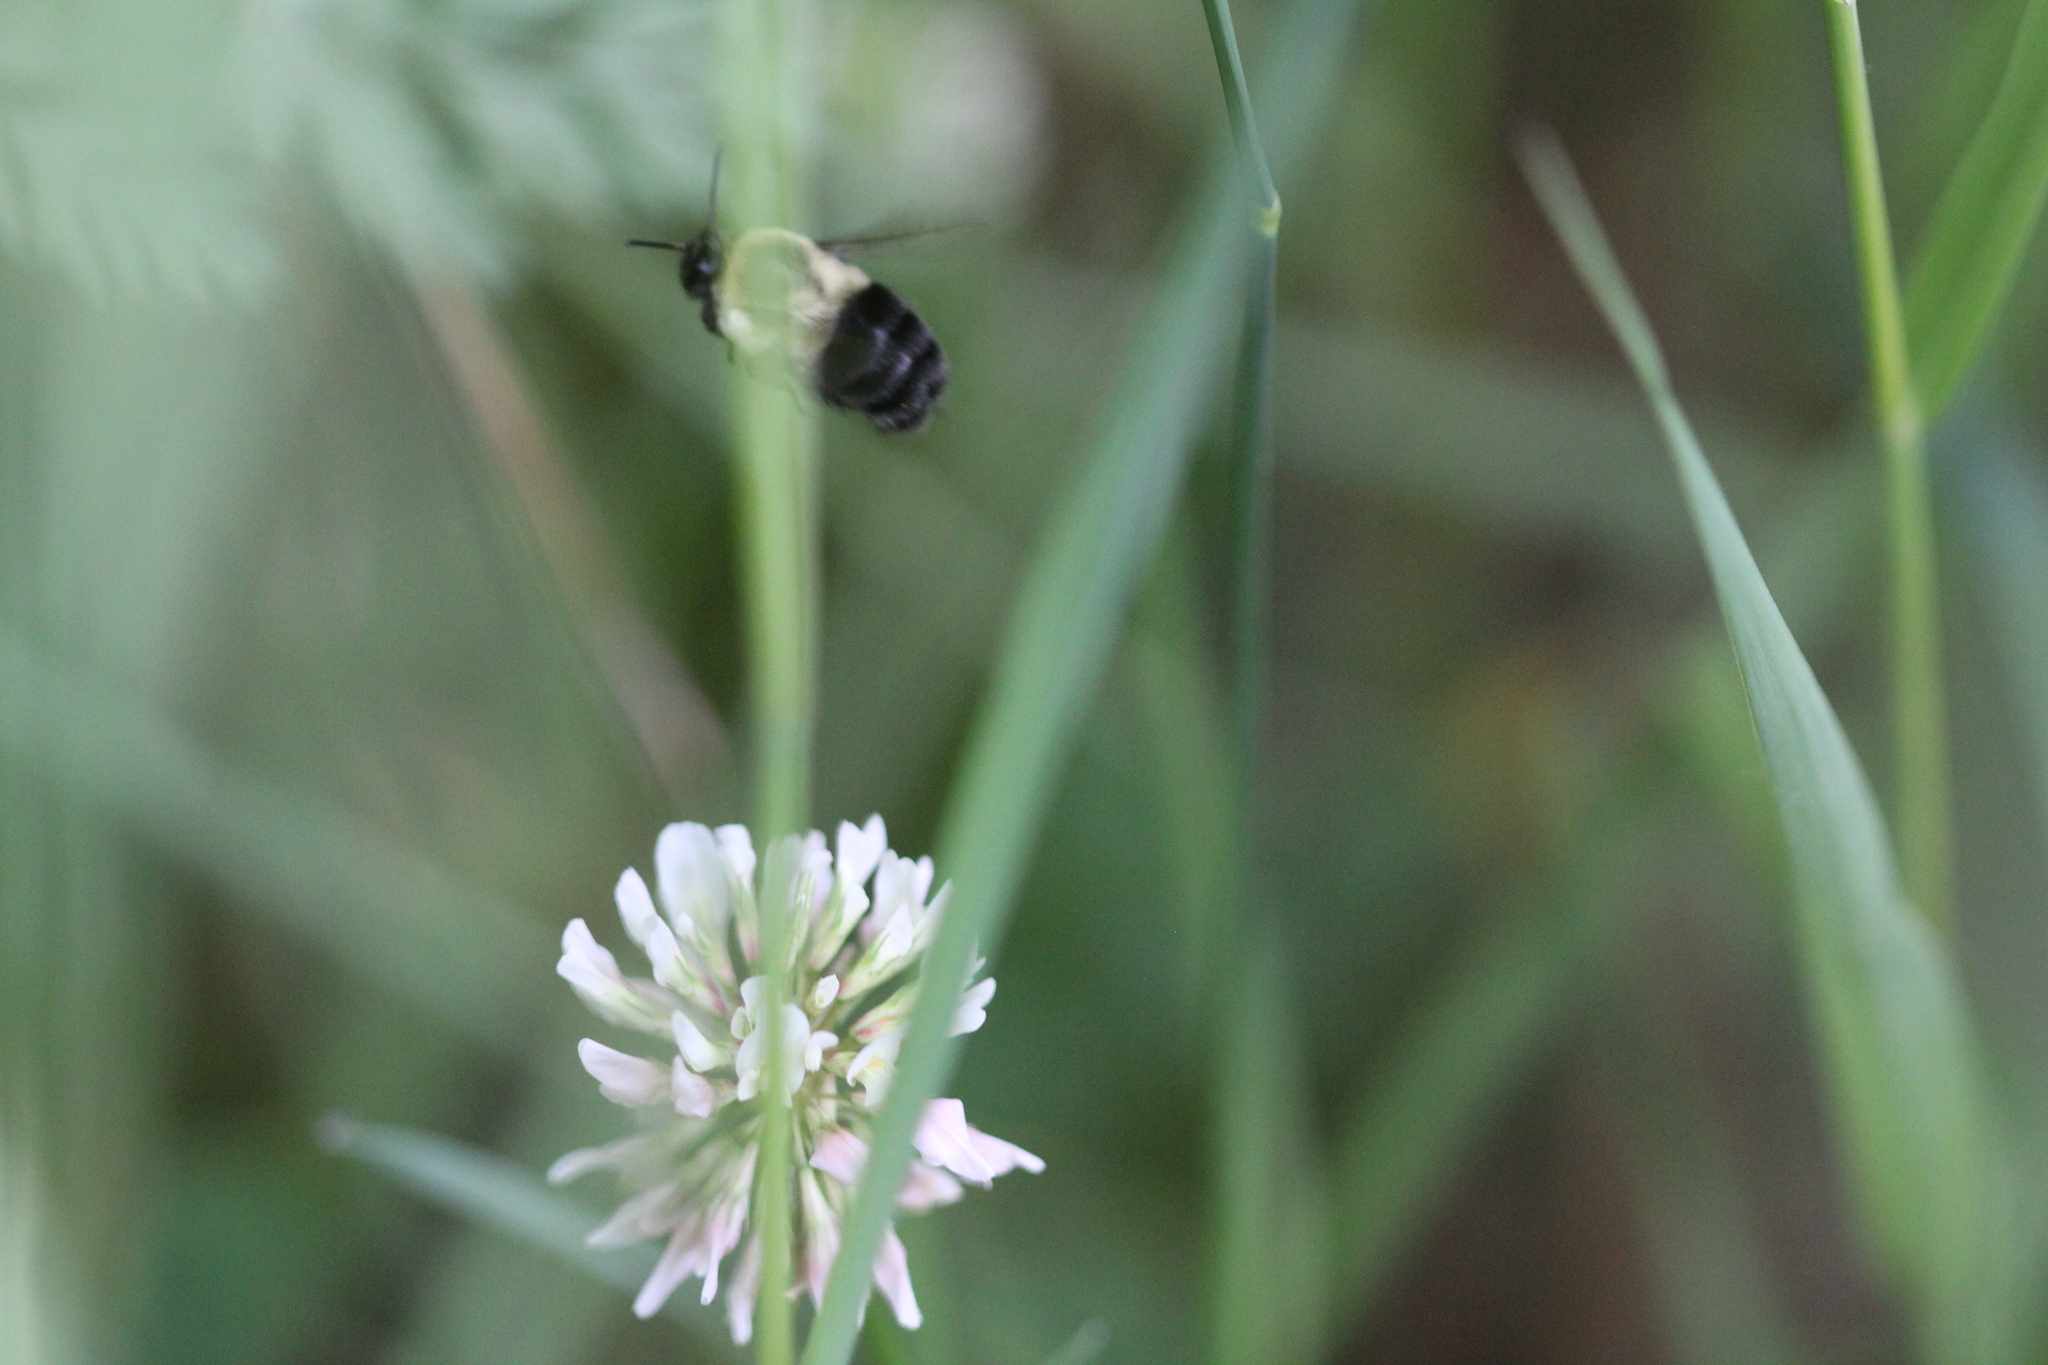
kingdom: Animalia
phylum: Arthropoda
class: Insecta
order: Hymenoptera
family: Apidae
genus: Bombus
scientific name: Bombus impatiens
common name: Common eastern bumble bee
